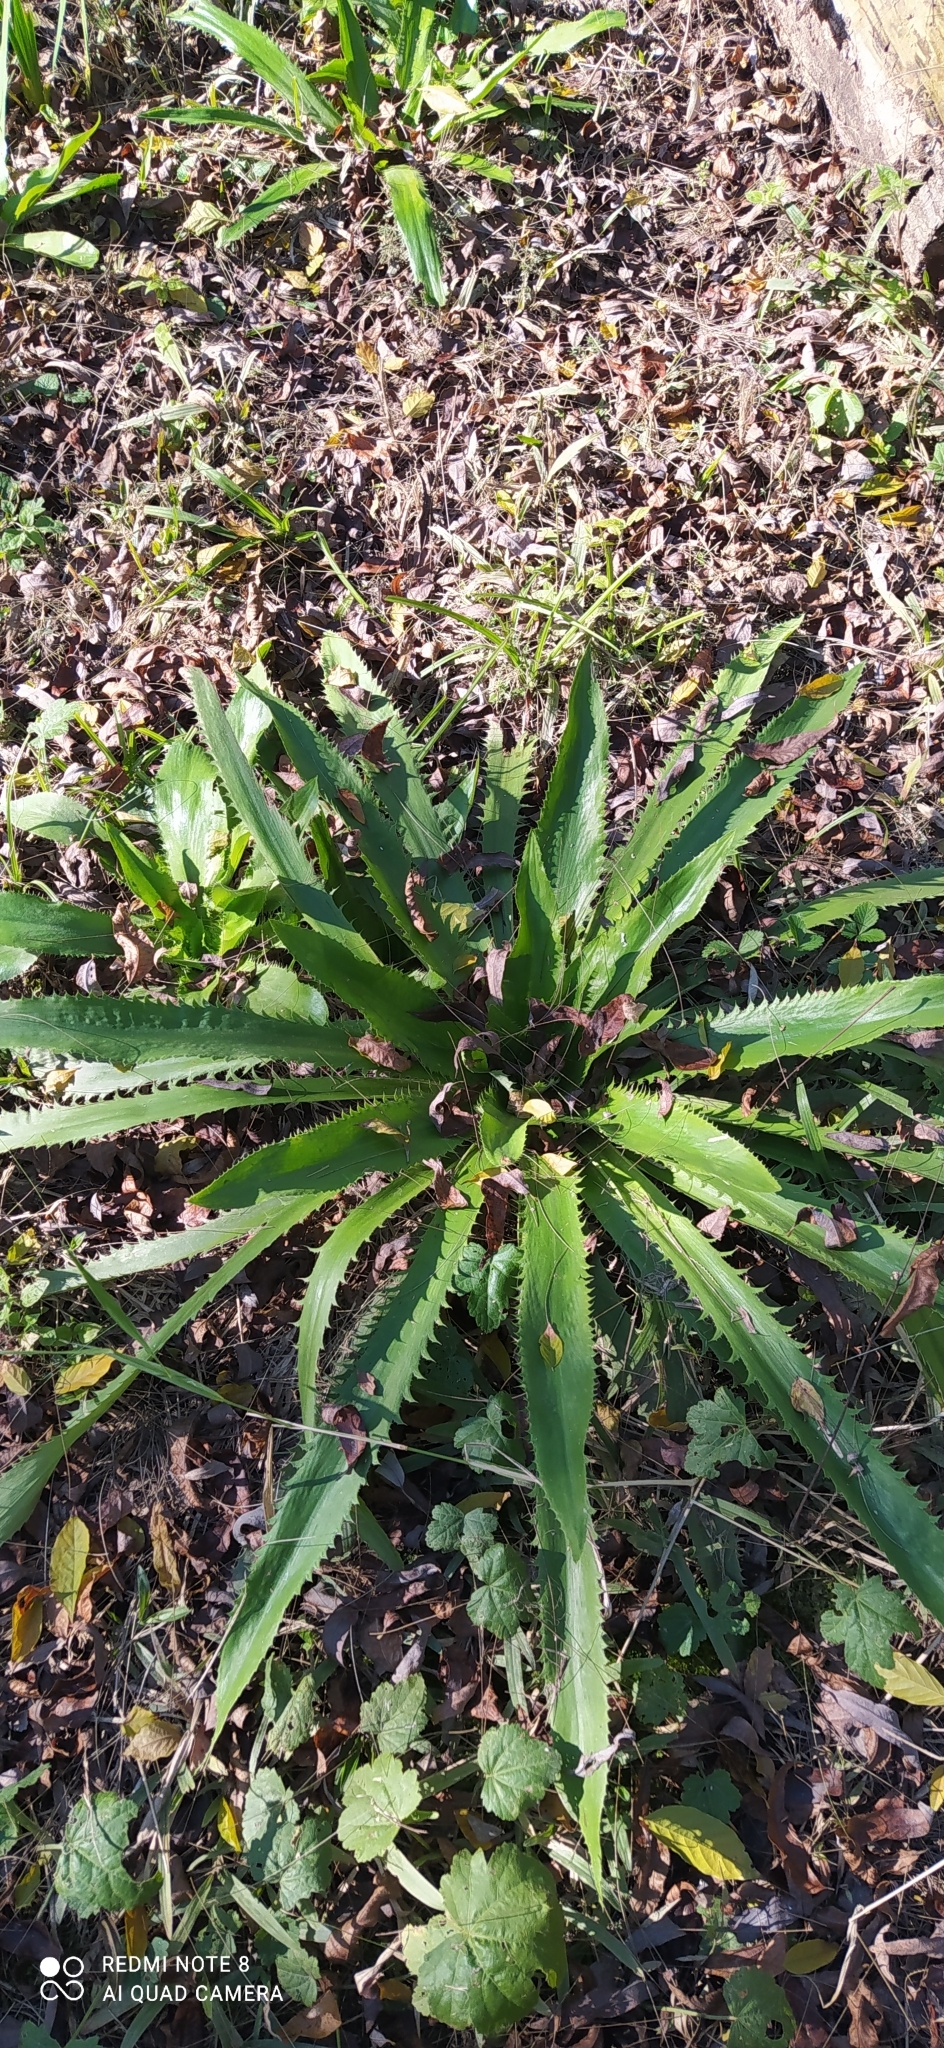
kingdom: Plantae
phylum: Tracheophyta
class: Magnoliopsida
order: Apiales
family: Apiaceae
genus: Eryngium
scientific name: Eryngium serra
